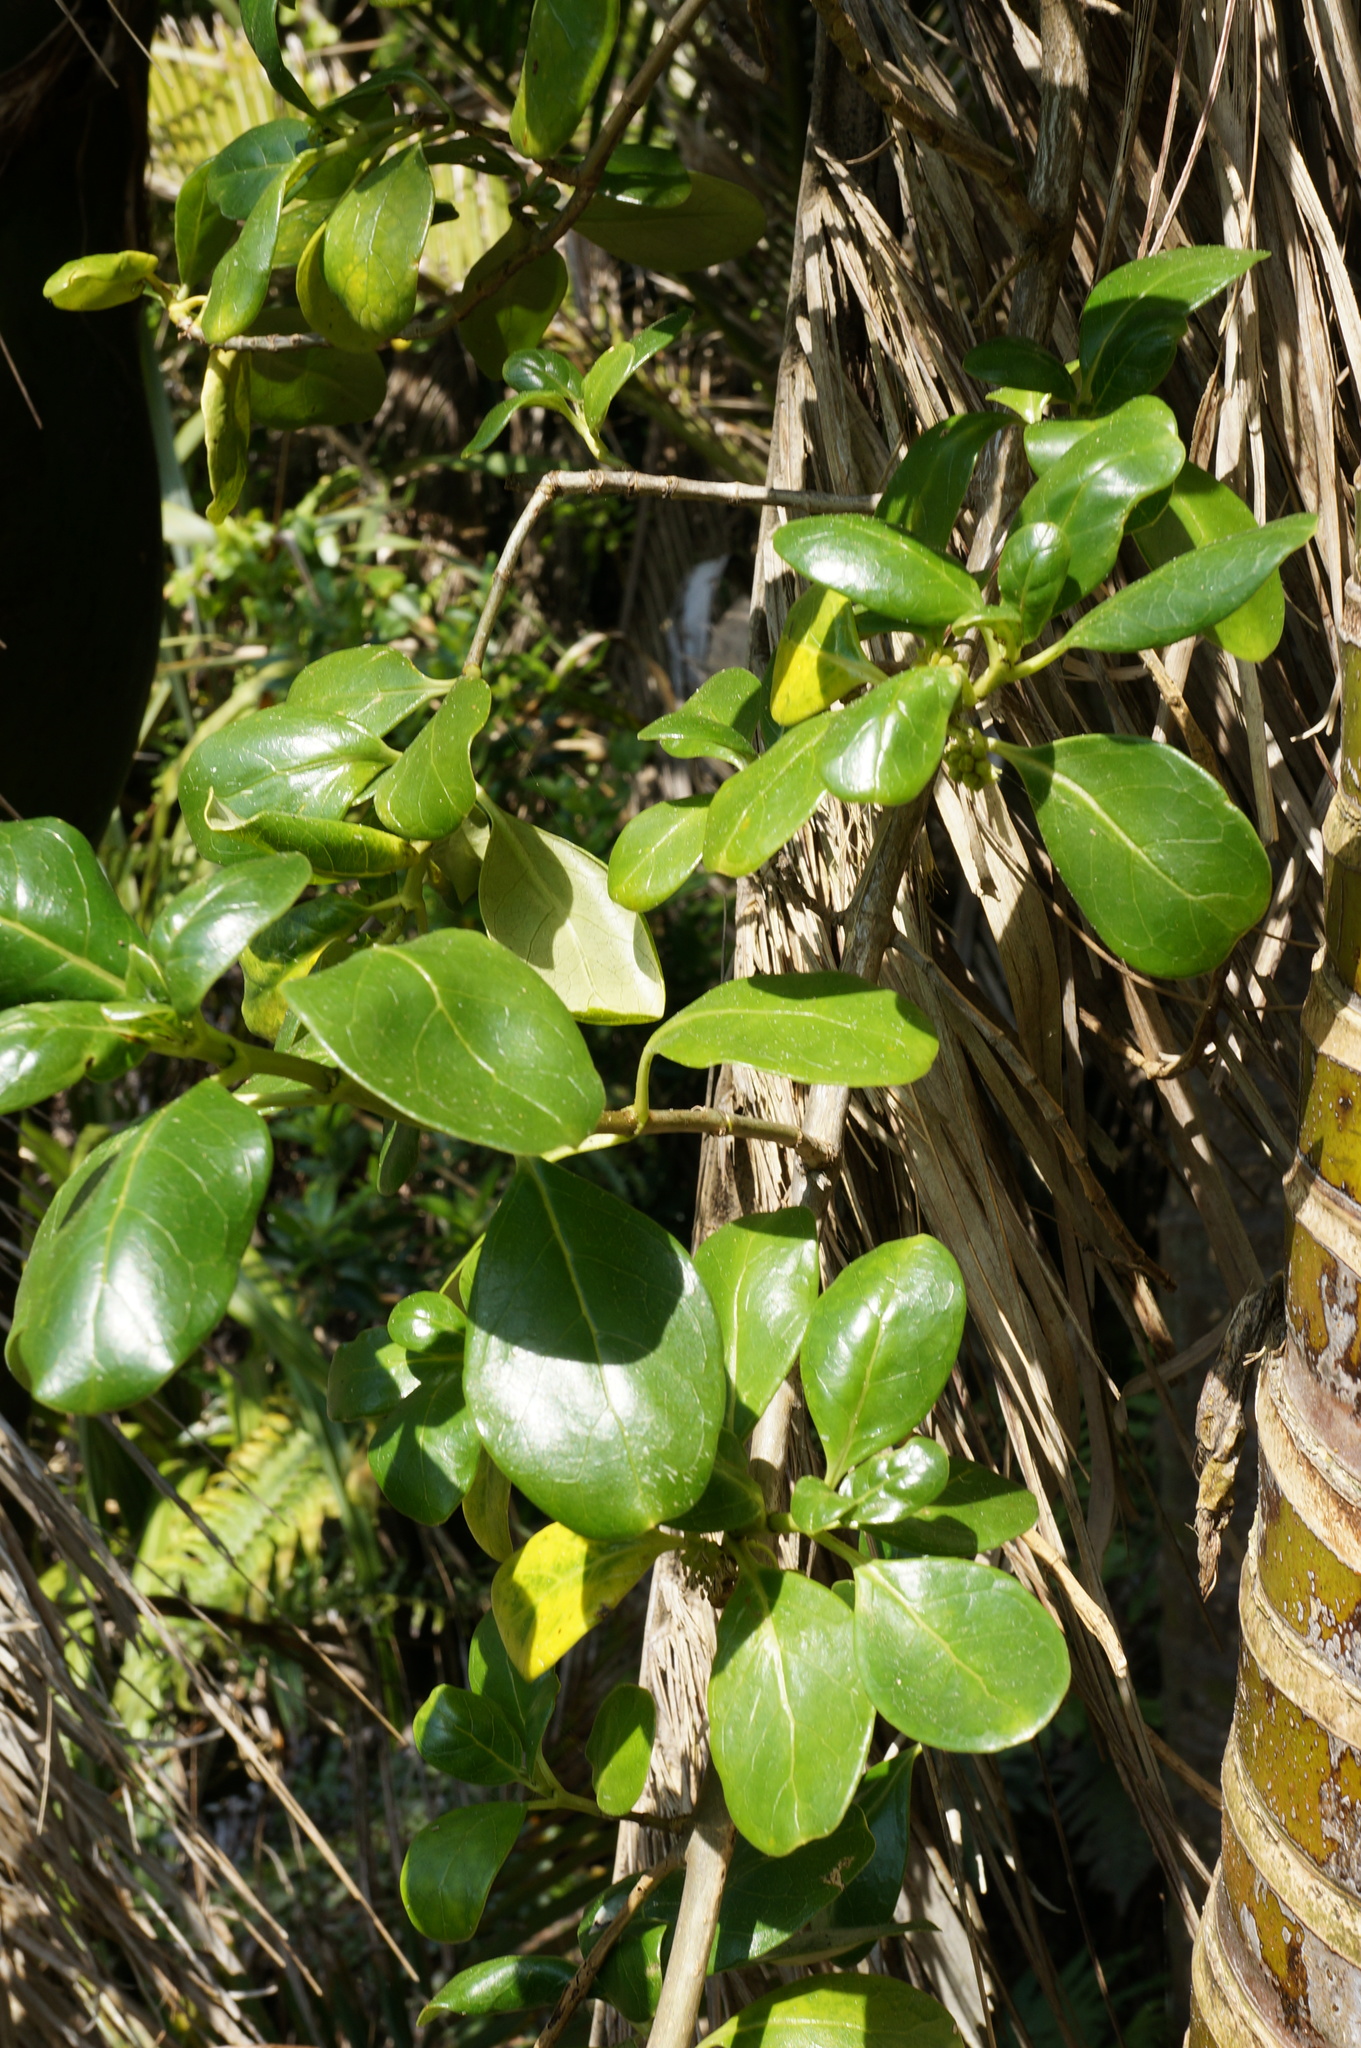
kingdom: Plantae
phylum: Tracheophyta
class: Magnoliopsida
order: Gentianales
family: Rubiaceae
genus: Coprosma
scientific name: Coprosma repens
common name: Tree bedstraw
